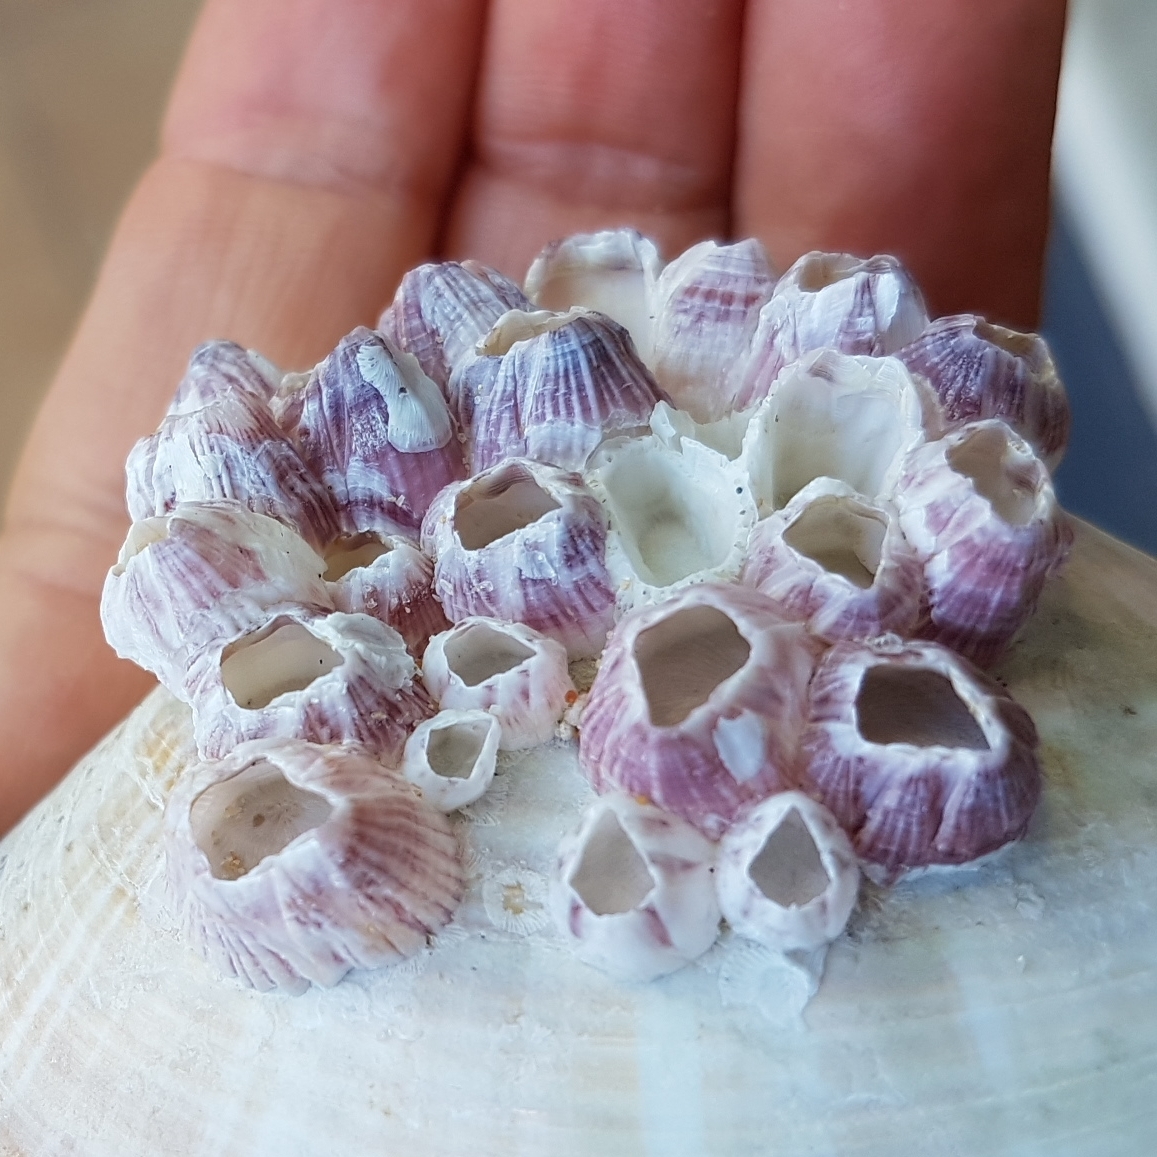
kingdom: Animalia
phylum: Arthropoda
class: Maxillopoda
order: Sessilia
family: Balanidae
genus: Balanus
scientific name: Balanus trigonus
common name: Triangle barnacle
